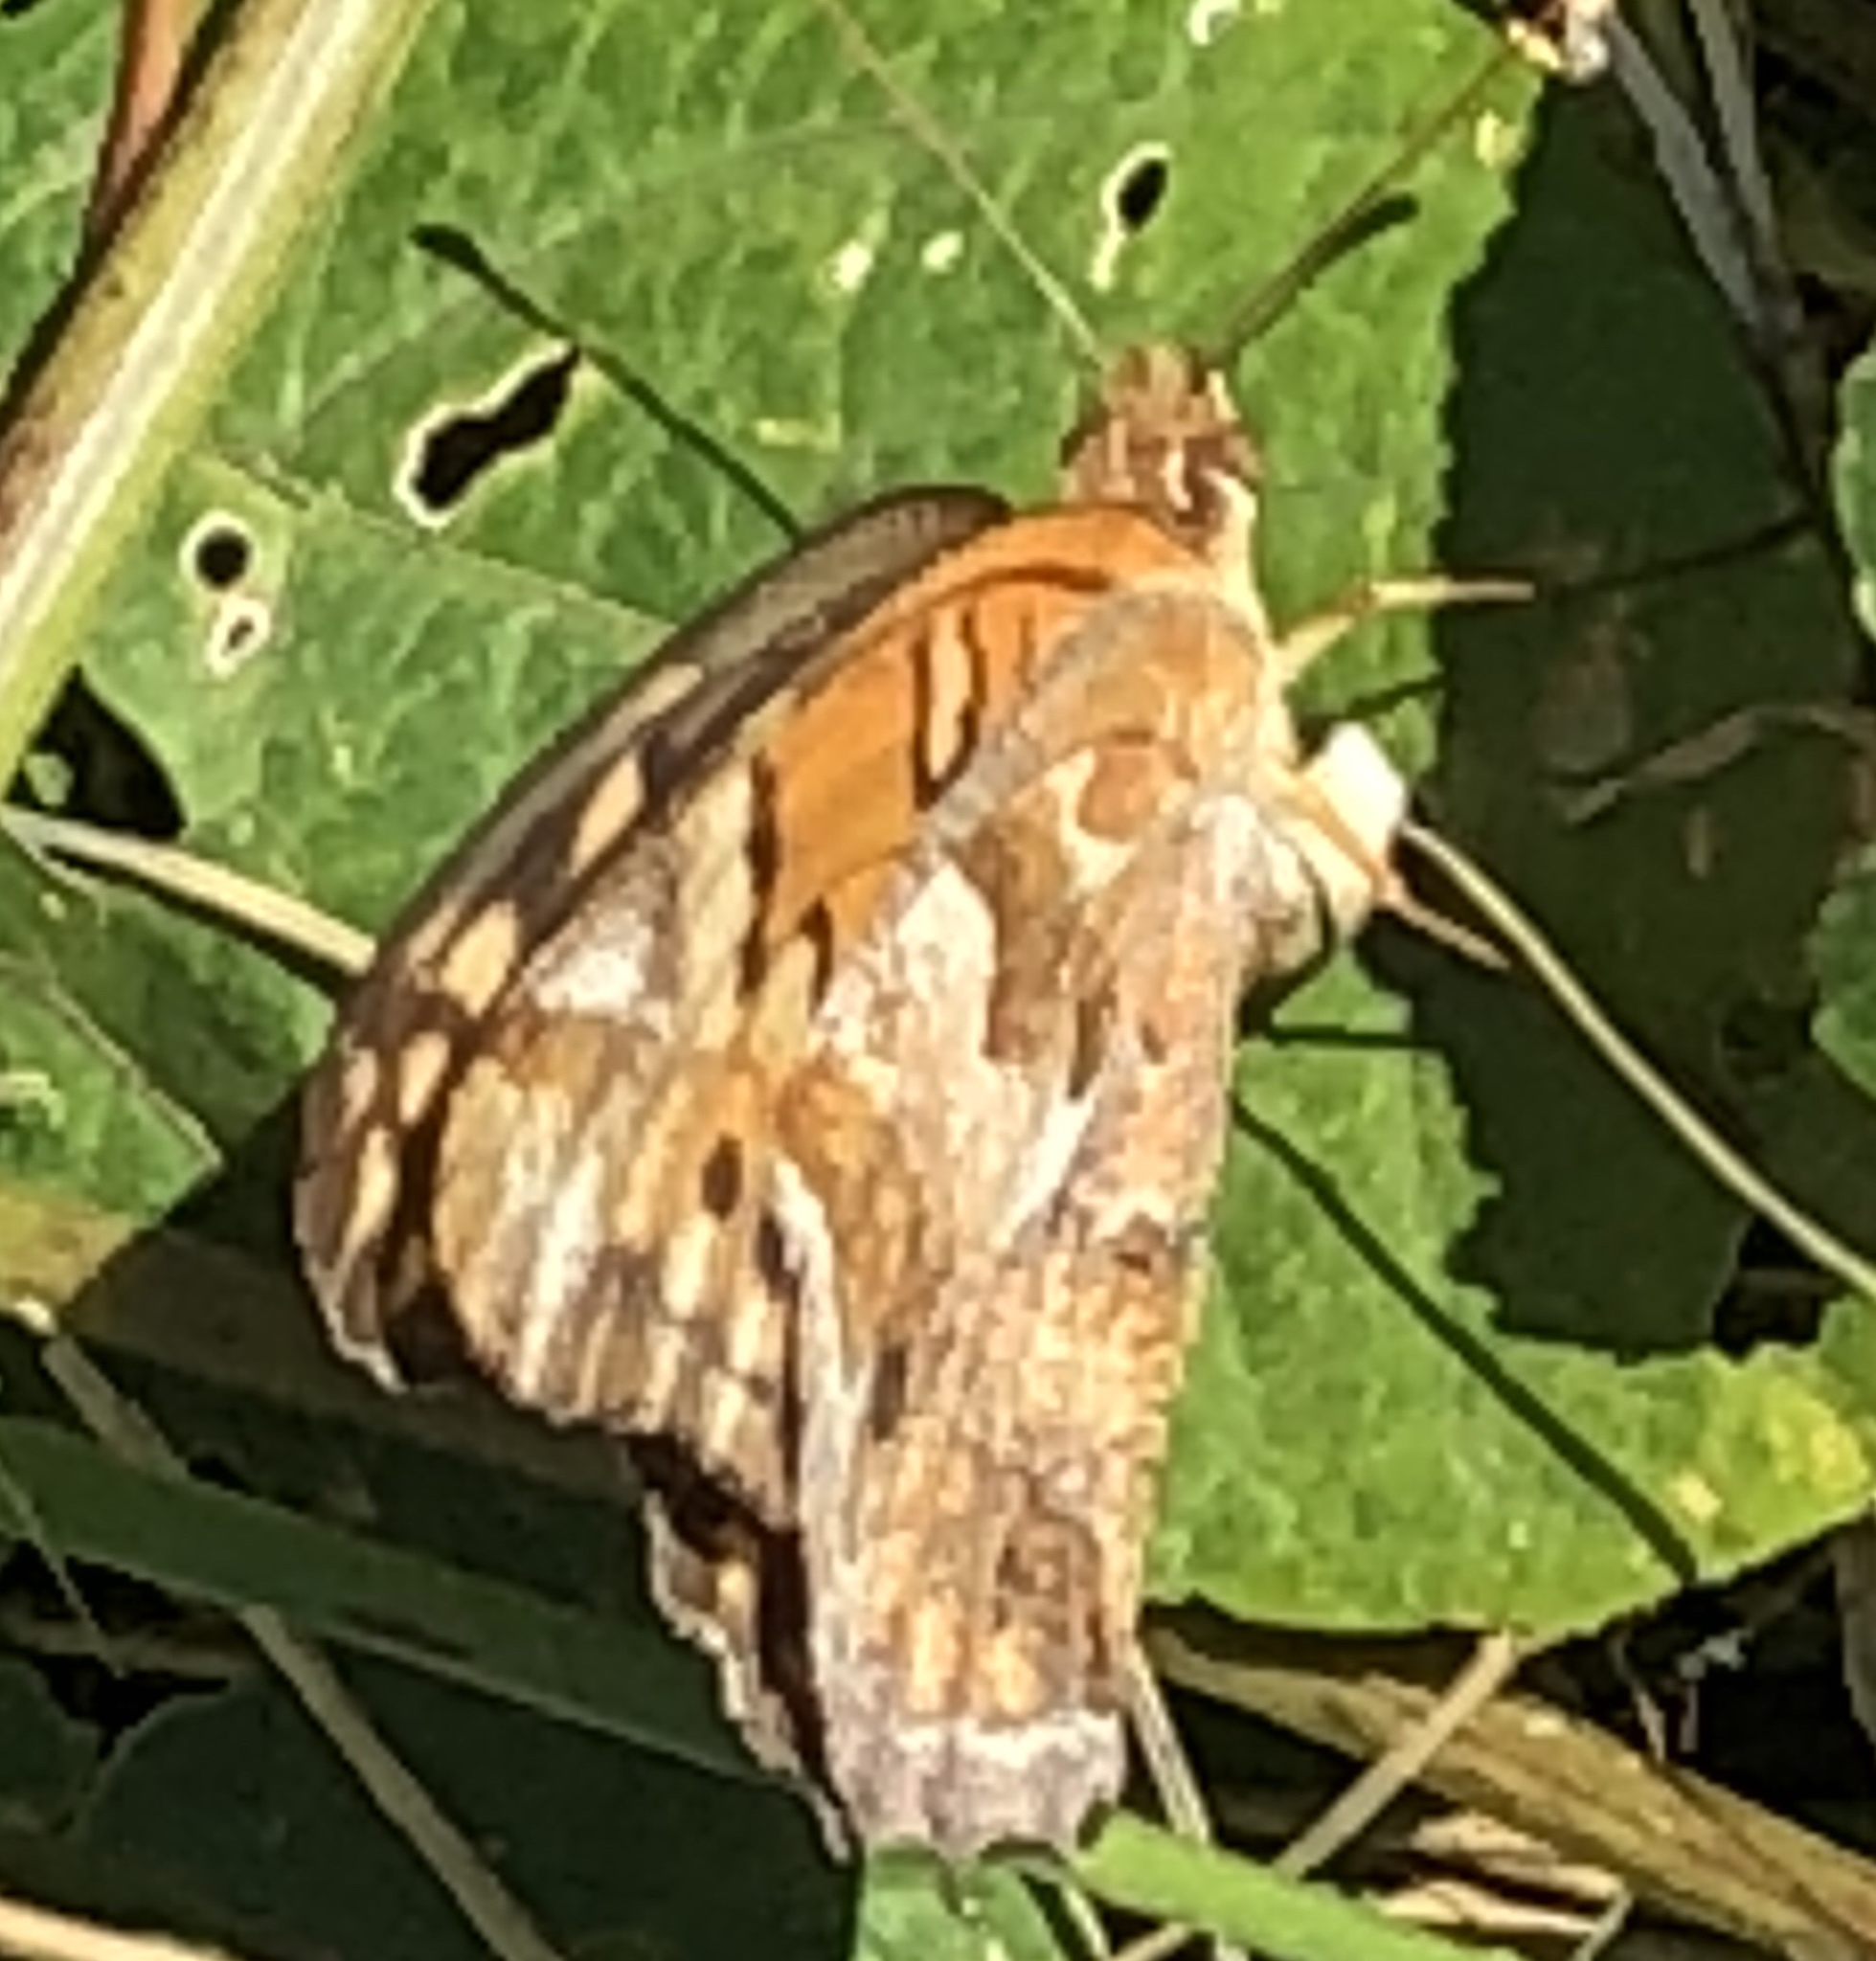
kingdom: Animalia
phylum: Arthropoda
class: Insecta
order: Lepidoptera
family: Nymphalidae
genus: Euptoieta
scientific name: Euptoieta claudia
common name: Variegated fritillary
